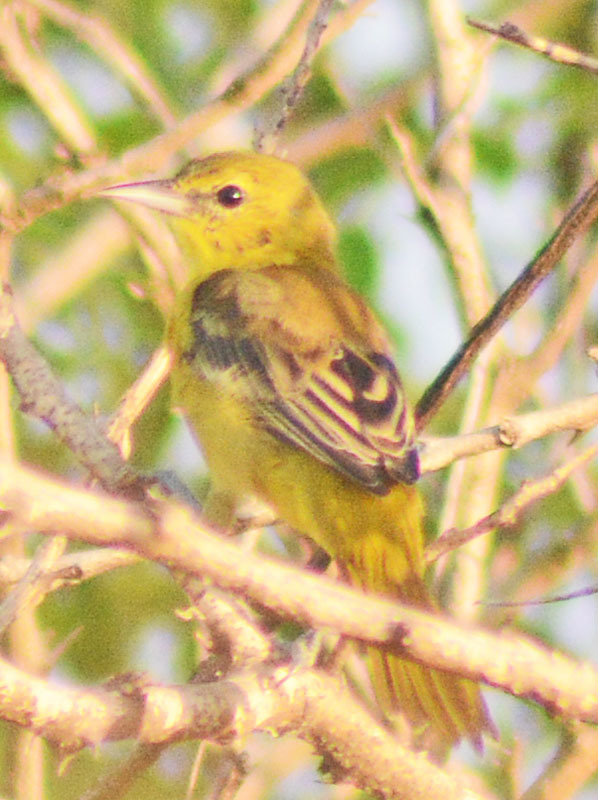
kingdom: Animalia
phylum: Chordata
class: Aves
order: Passeriformes
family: Icteridae
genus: Icterus
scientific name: Icterus spurius
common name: Orchard oriole
